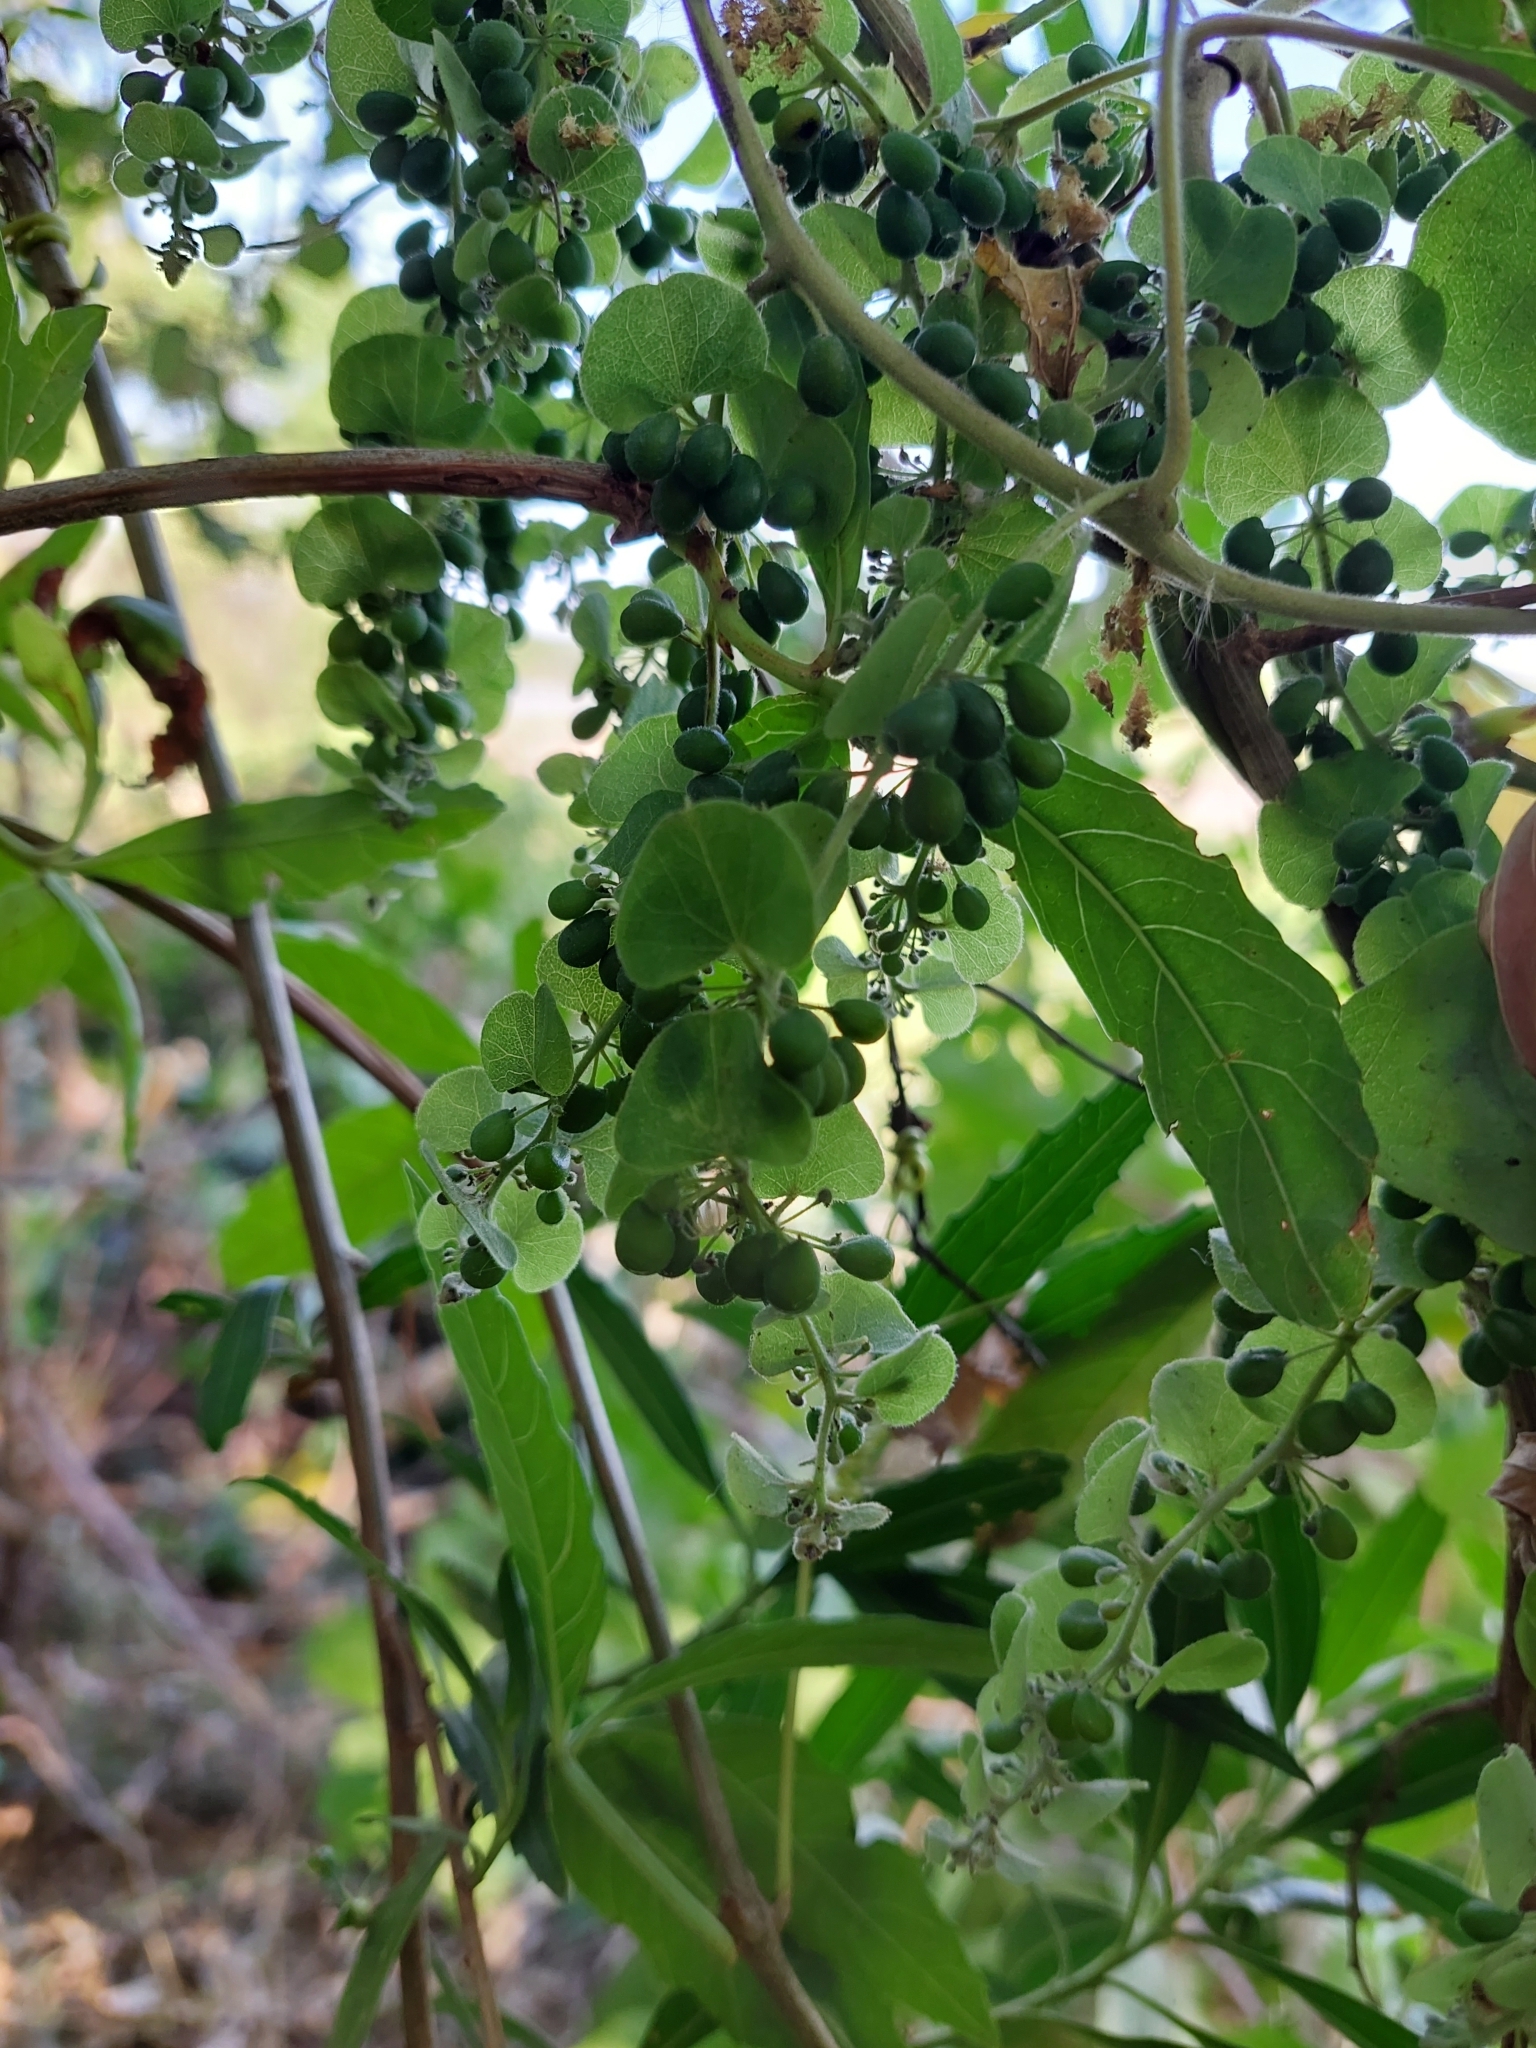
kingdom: Plantae
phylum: Tracheophyta
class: Magnoliopsida
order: Ranunculales
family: Menispermaceae
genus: Cissampelos
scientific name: Cissampelos pareira
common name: Velvetleaf
